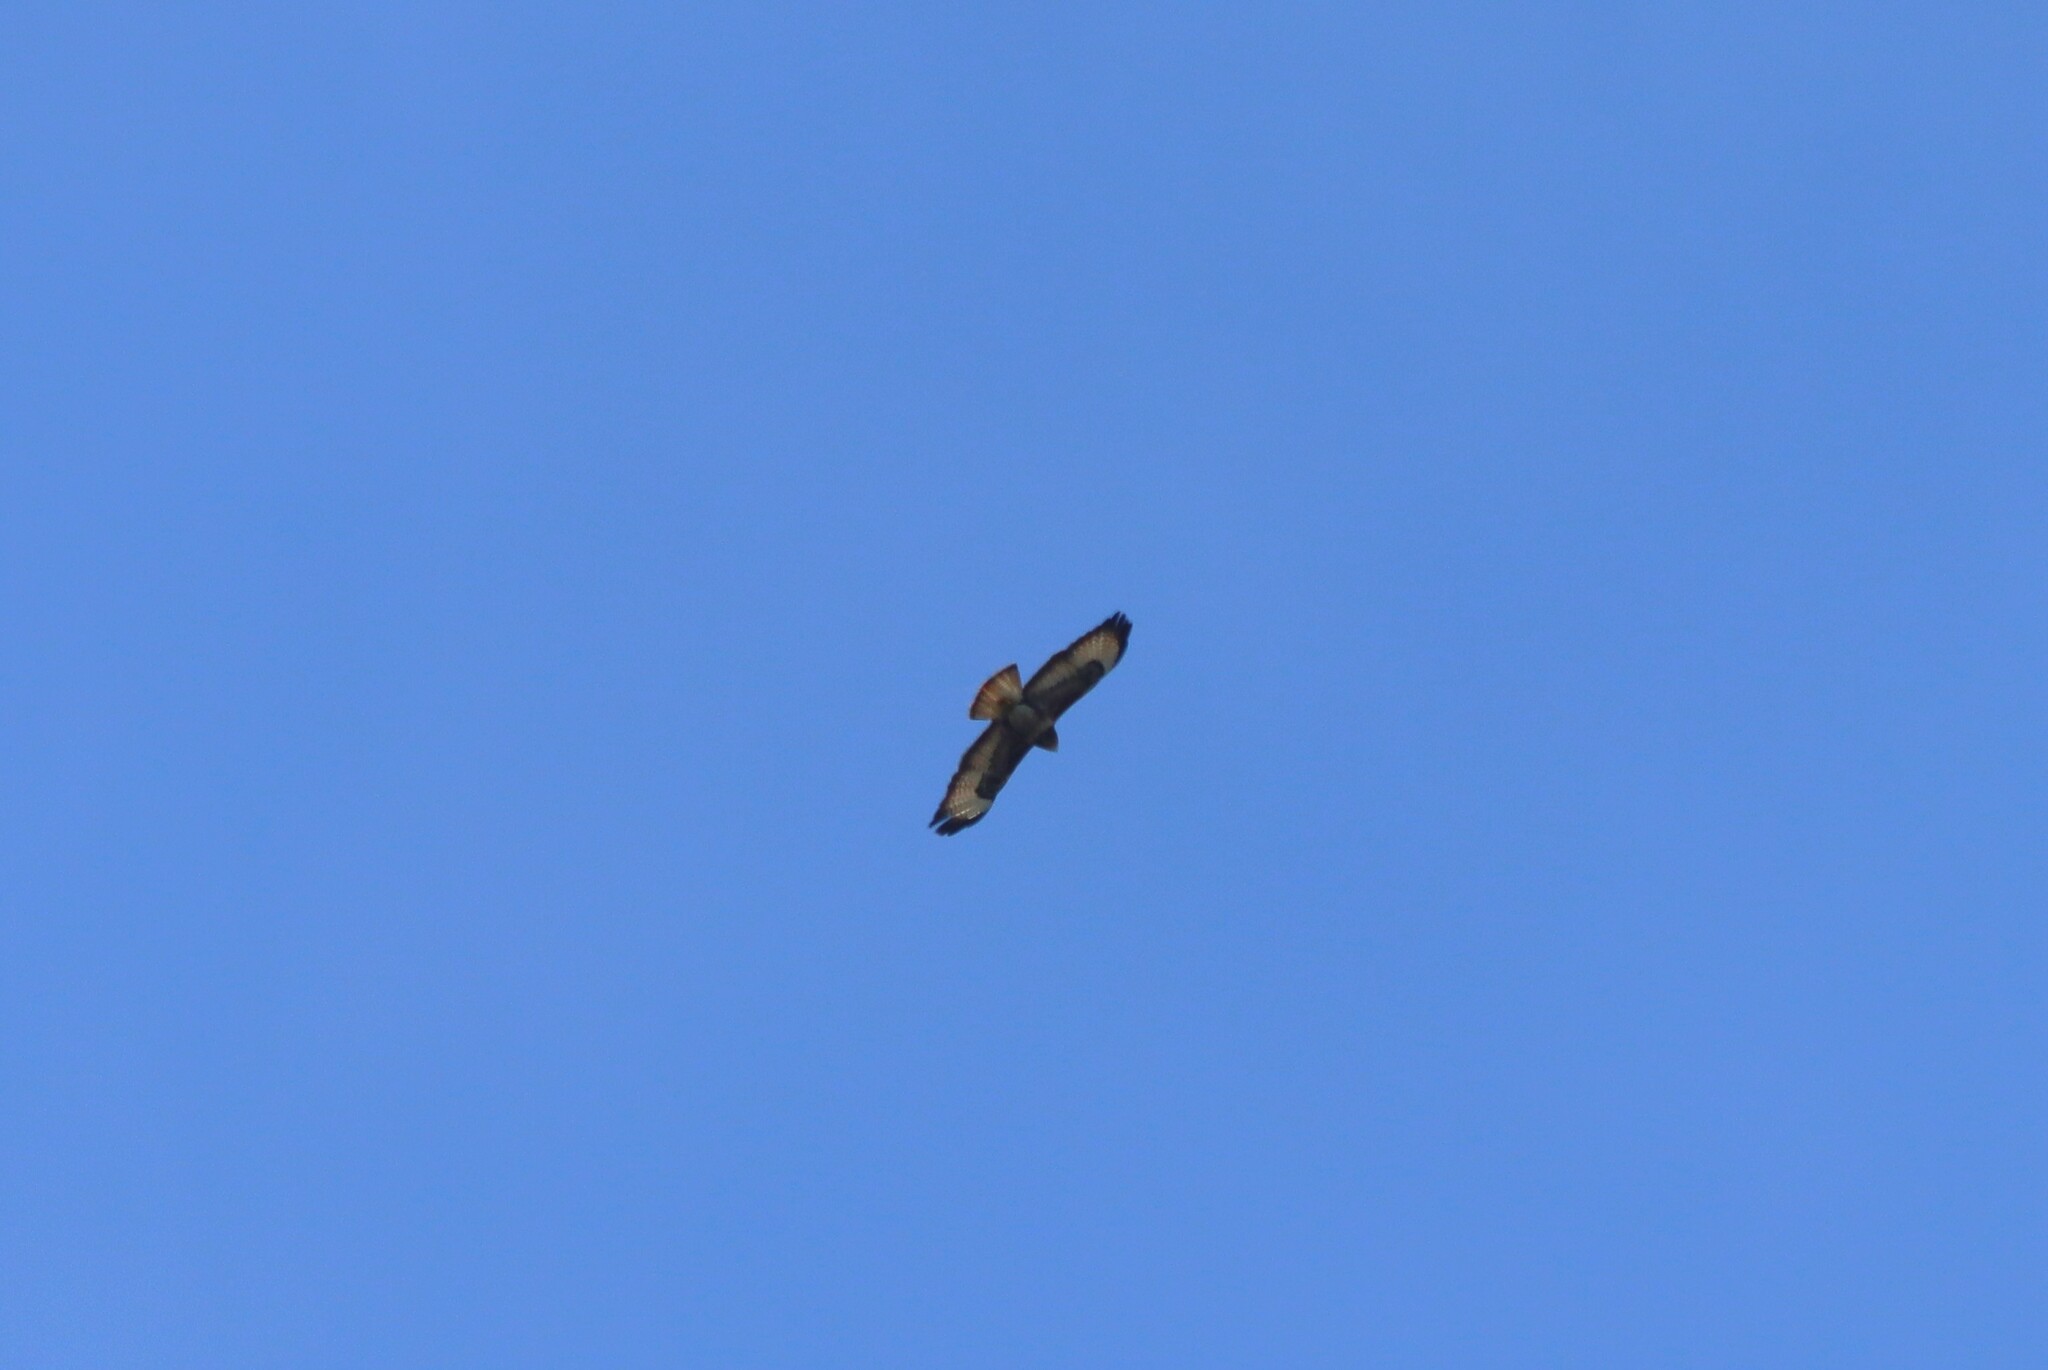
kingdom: Animalia
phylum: Chordata
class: Aves
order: Accipitriformes
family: Accipitridae
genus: Buteo
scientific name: Buteo buteo
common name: Common buzzard
